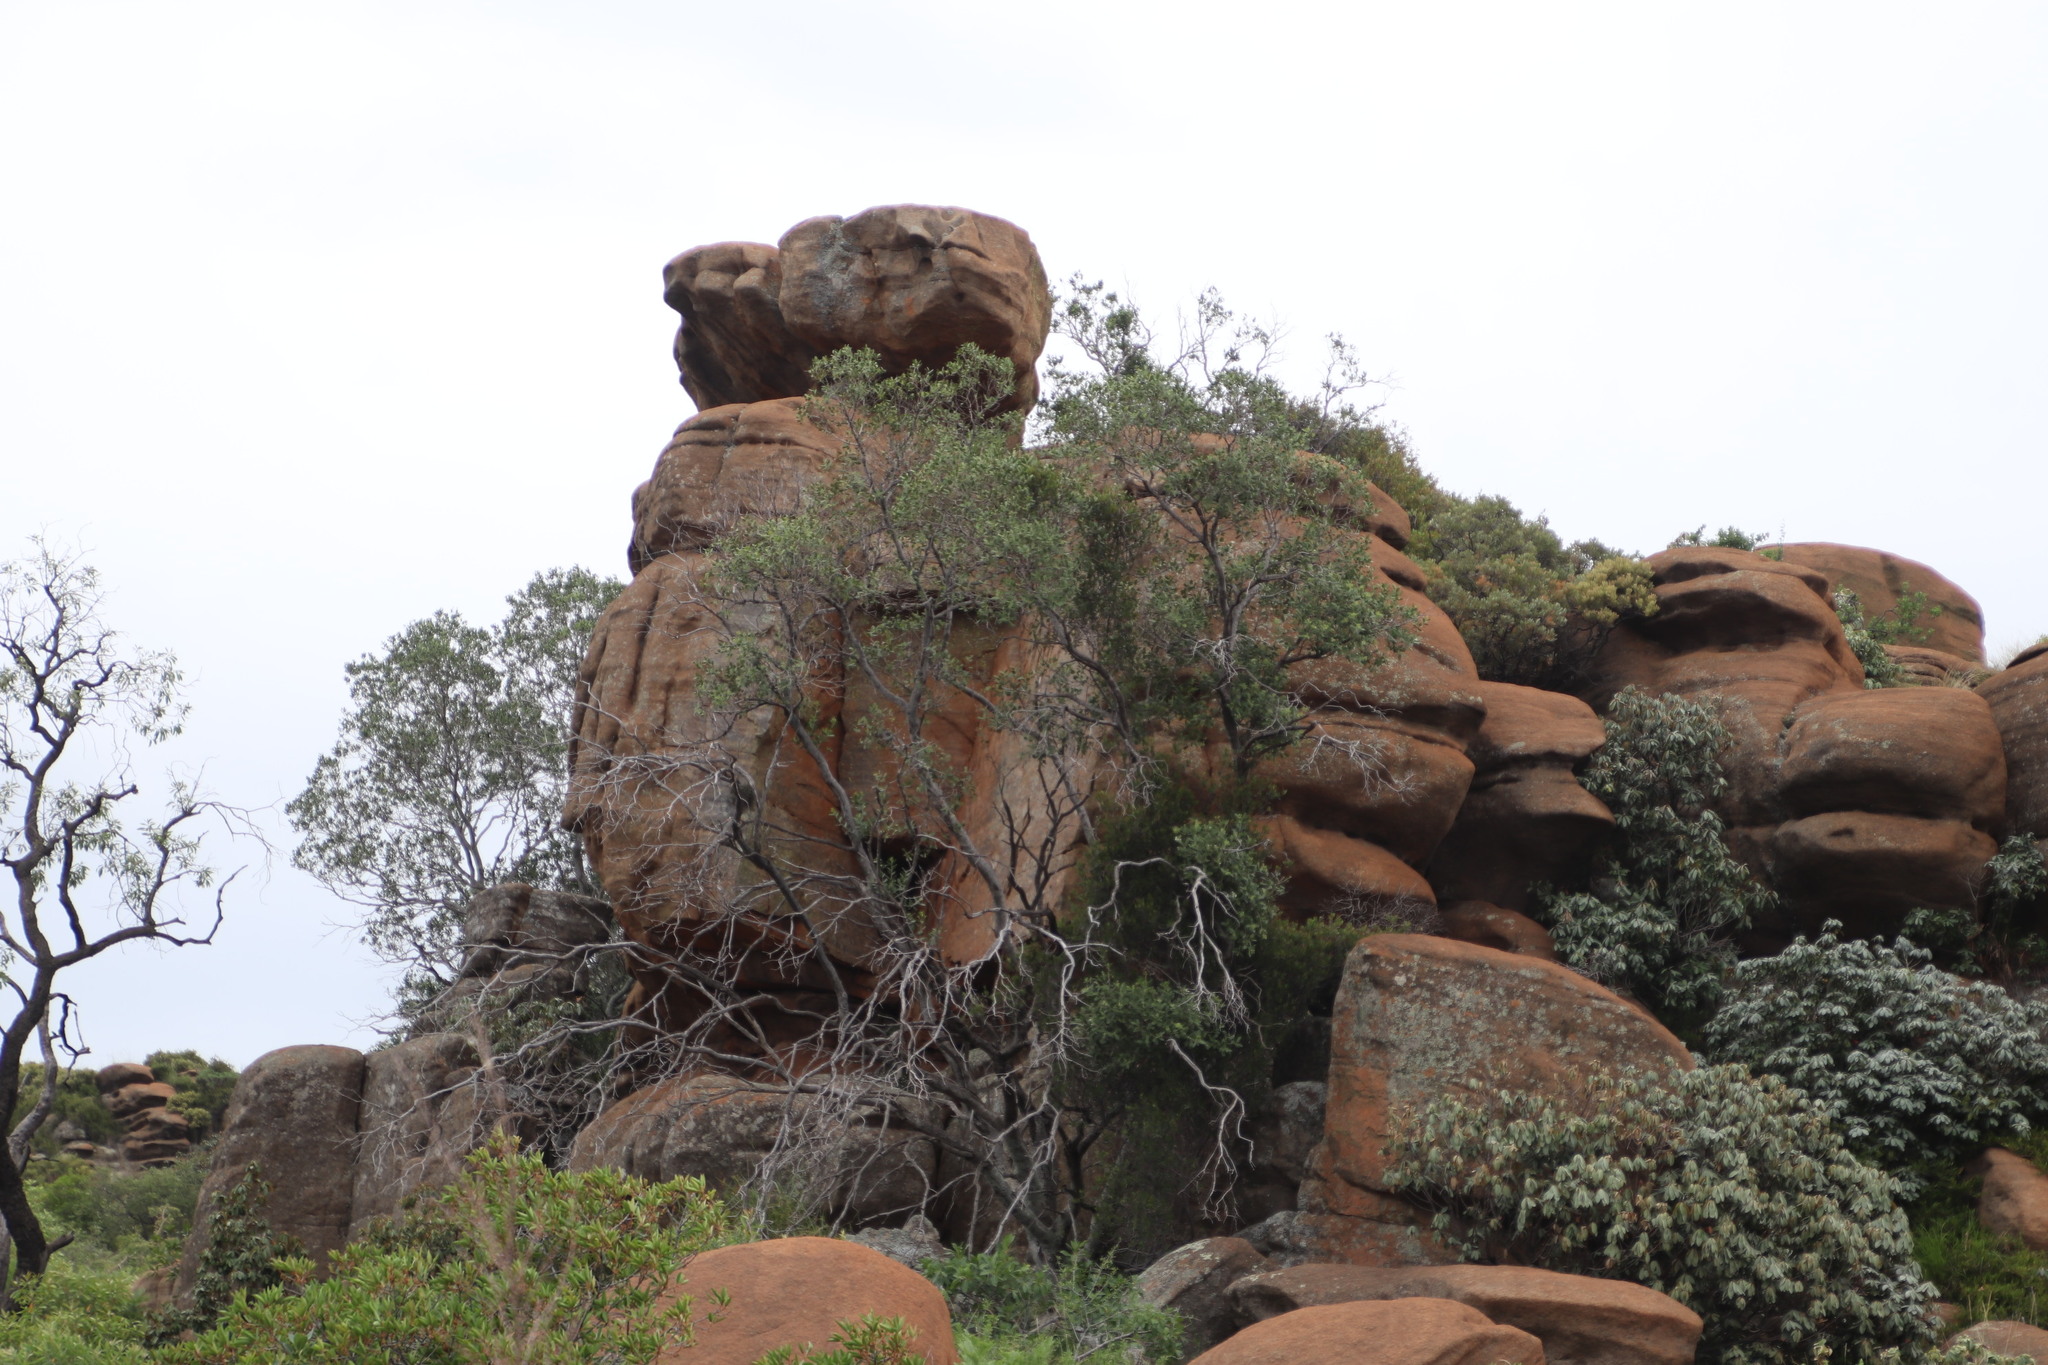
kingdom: Plantae
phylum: Tracheophyta
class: Magnoliopsida
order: Ericales
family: Sapotaceae
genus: Englerophytum
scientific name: Englerophytum magalismontanum
